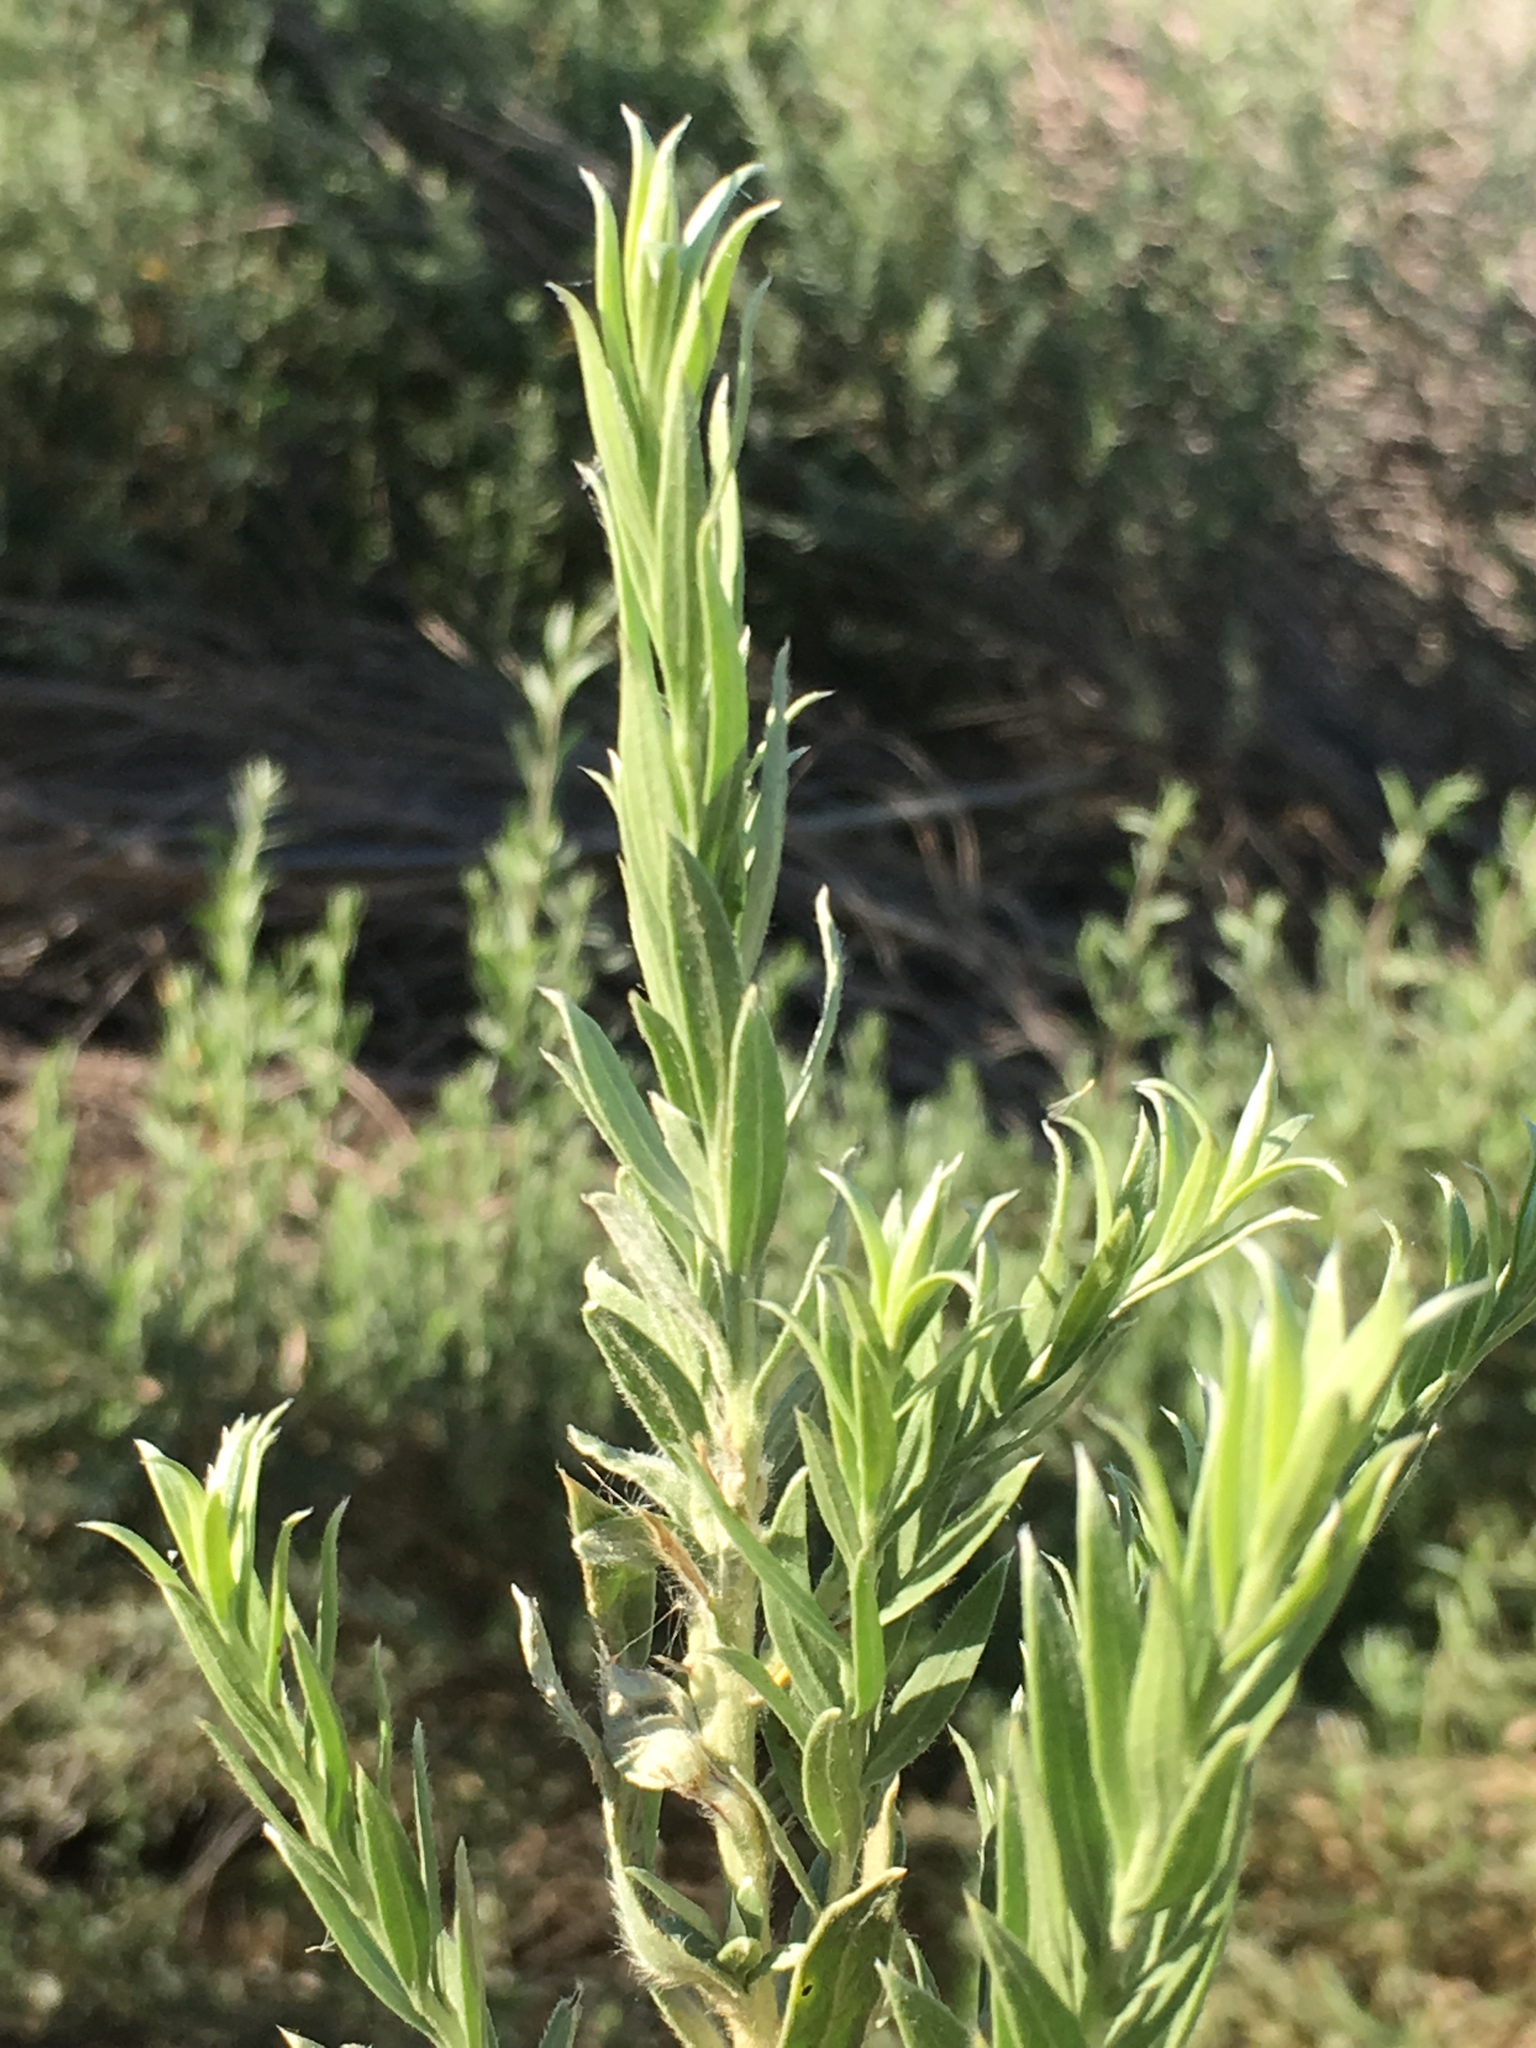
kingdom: Plantae
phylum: Tracheophyta
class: Magnoliopsida
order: Asterales
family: Asteraceae
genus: Pluchea
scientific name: Pluchea sericea
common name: Arrow-weed
